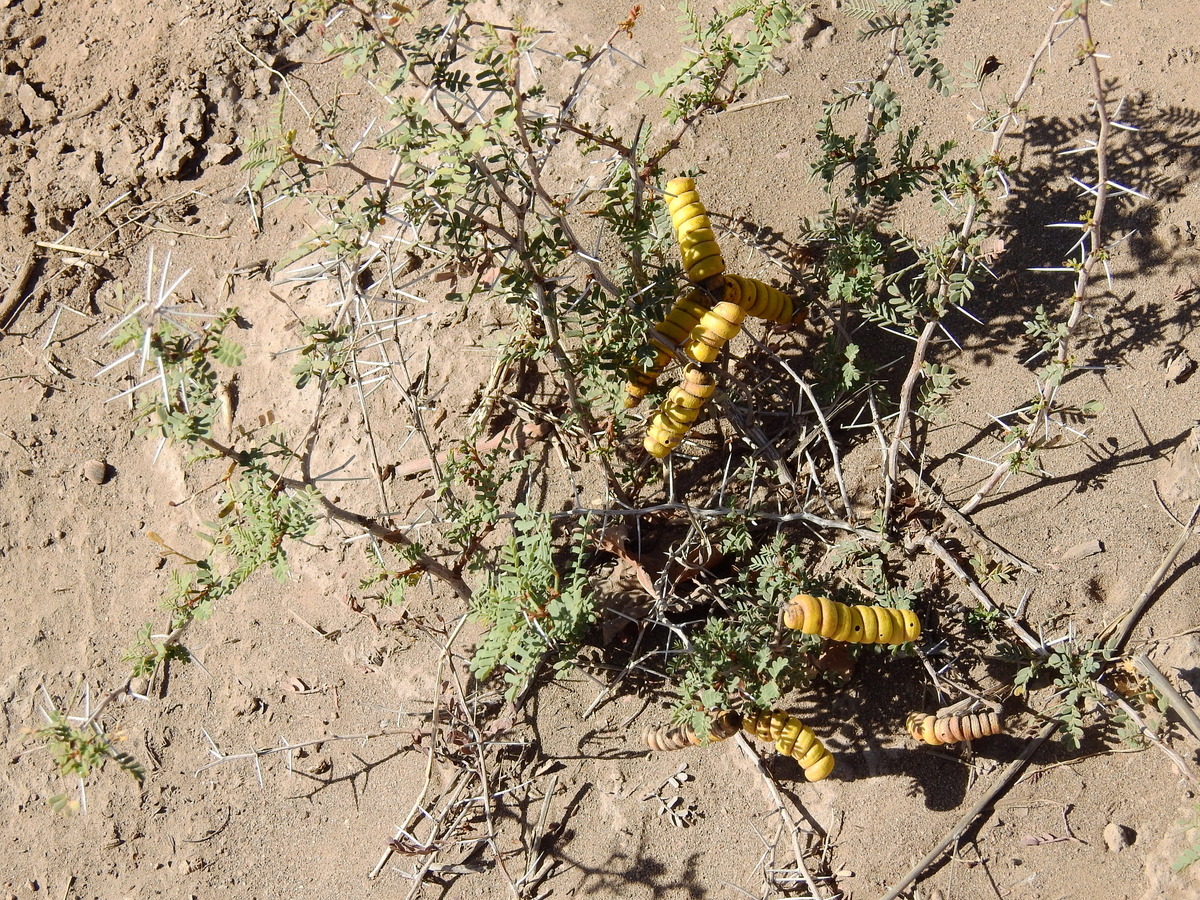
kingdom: Plantae
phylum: Tracheophyta
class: Magnoliopsida
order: Fabales
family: Fabaceae
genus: Prosopis
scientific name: Prosopis strombulifera
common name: Creeping mesquite
